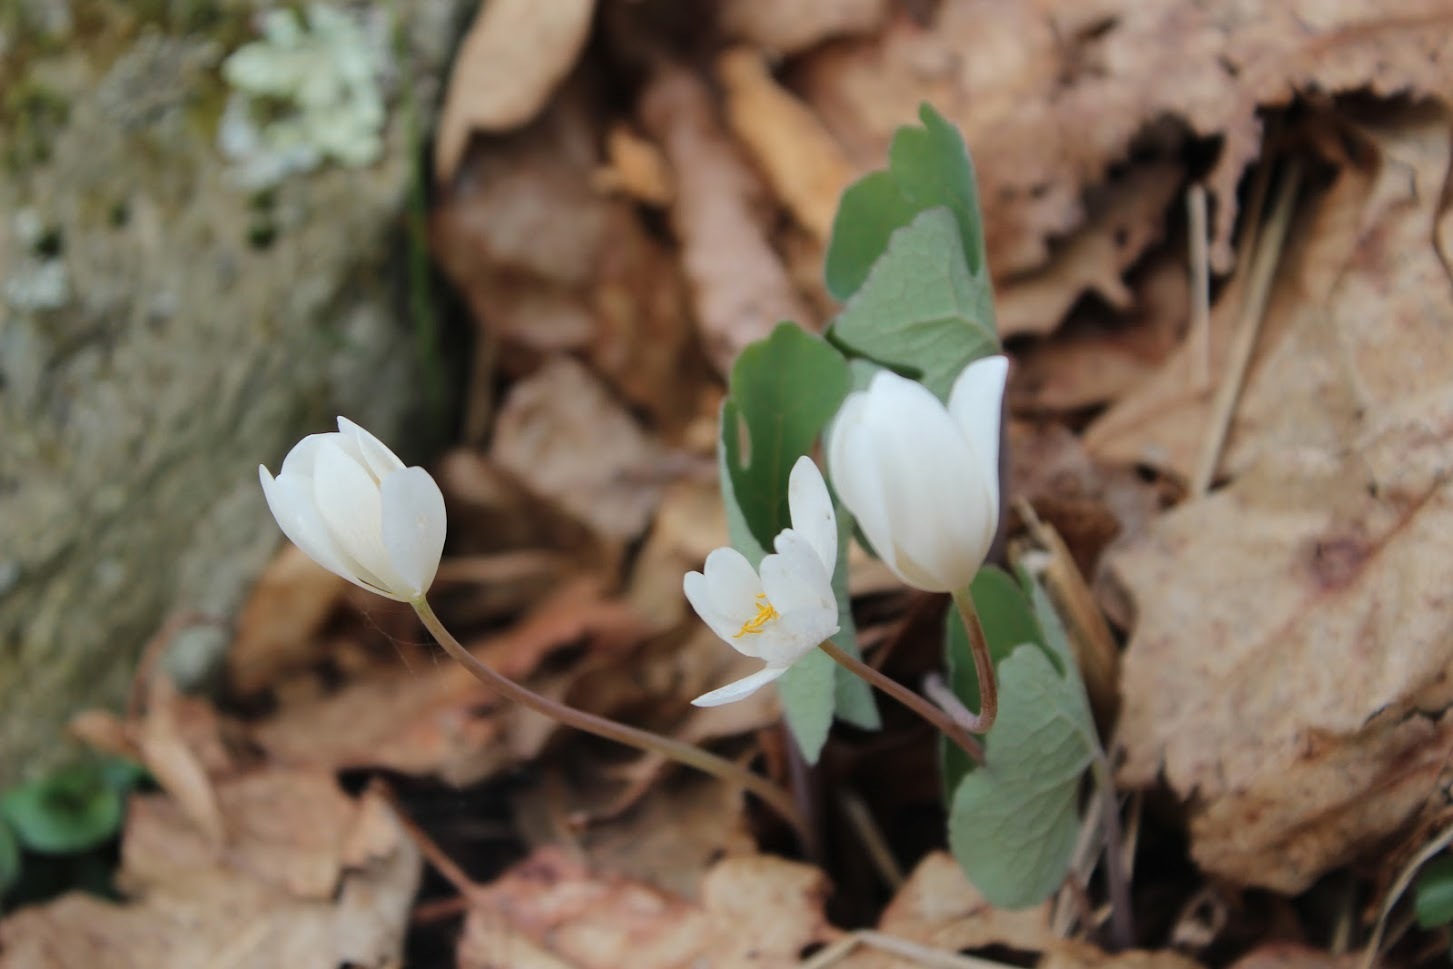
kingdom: Plantae
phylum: Tracheophyta
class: Magnoliopsida
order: Ranunculales
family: Papaveraceae
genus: Sanguinaria
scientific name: Sanguinaria canadensis
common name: Bloodroot
